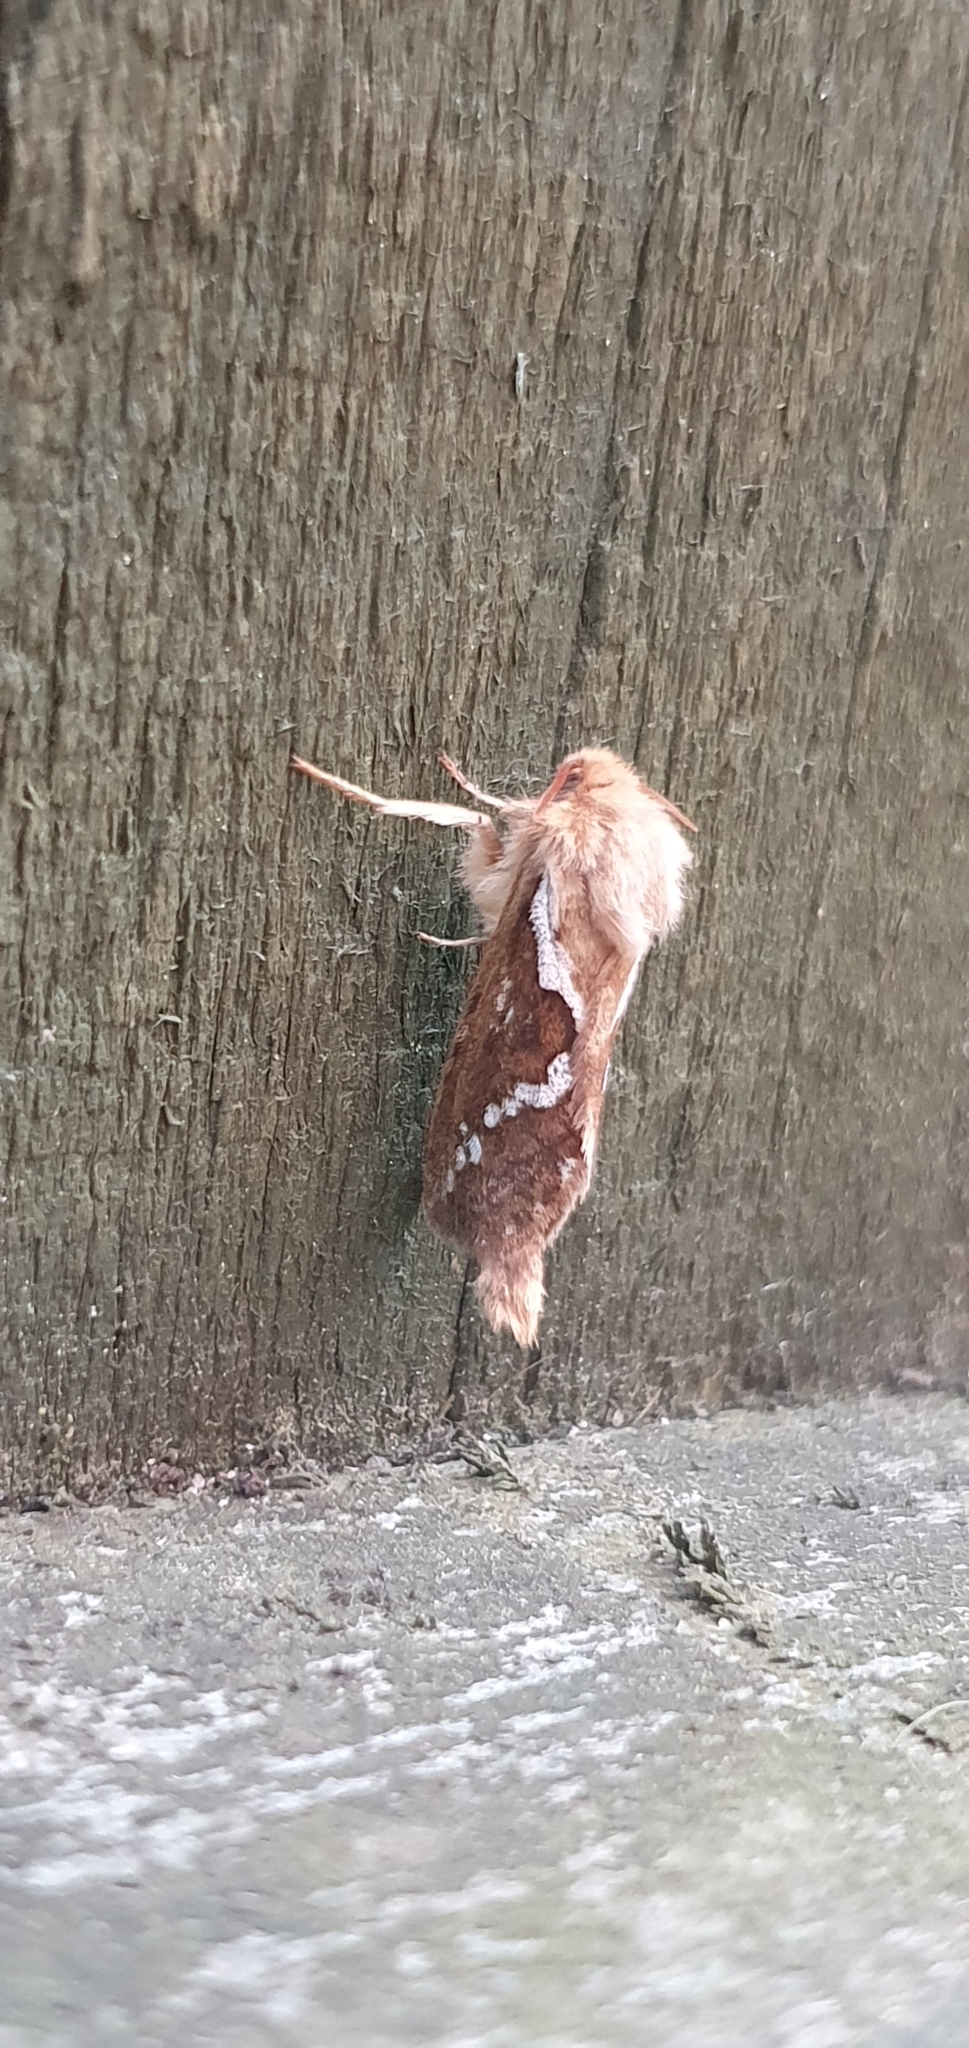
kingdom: Animalia
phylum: Arthropoda
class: Insecta
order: Lepidoptera
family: Hepialidae
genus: Korscheltellus
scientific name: Korscheltellus lupulina
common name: Common swift
